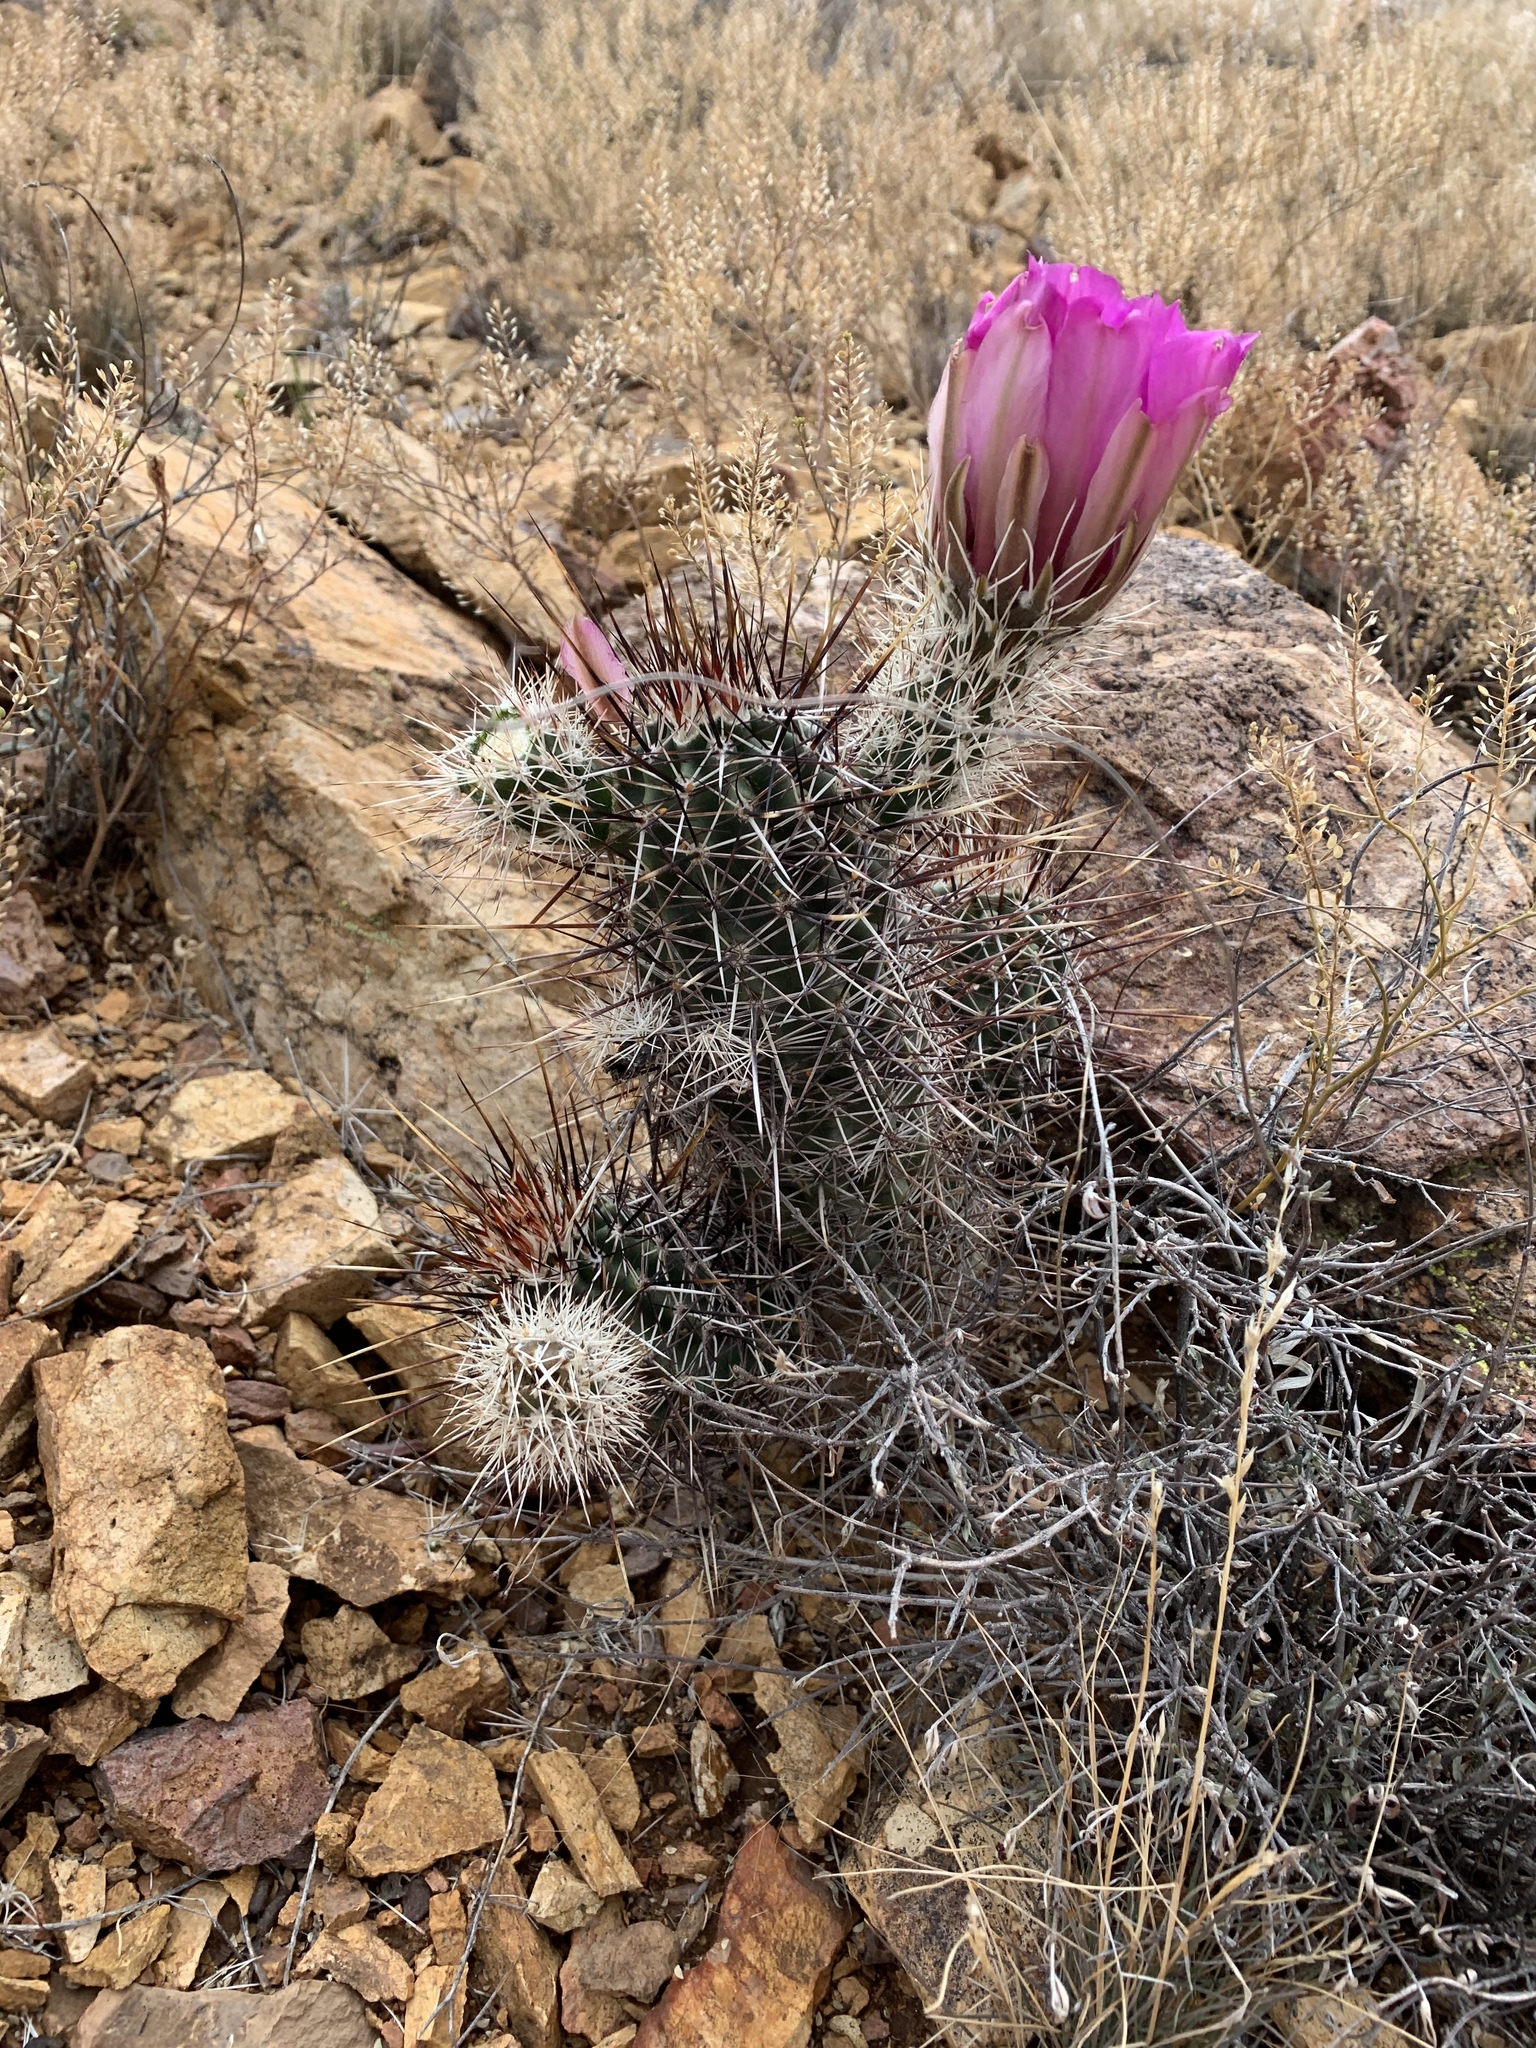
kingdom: Plantae
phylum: Tracheophyta
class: Magnoliopsida
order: Caryophyllales
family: Cactaceae
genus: Echinocereus
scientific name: Echinocereus fendleri
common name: Fendler's hedgehog cactus
